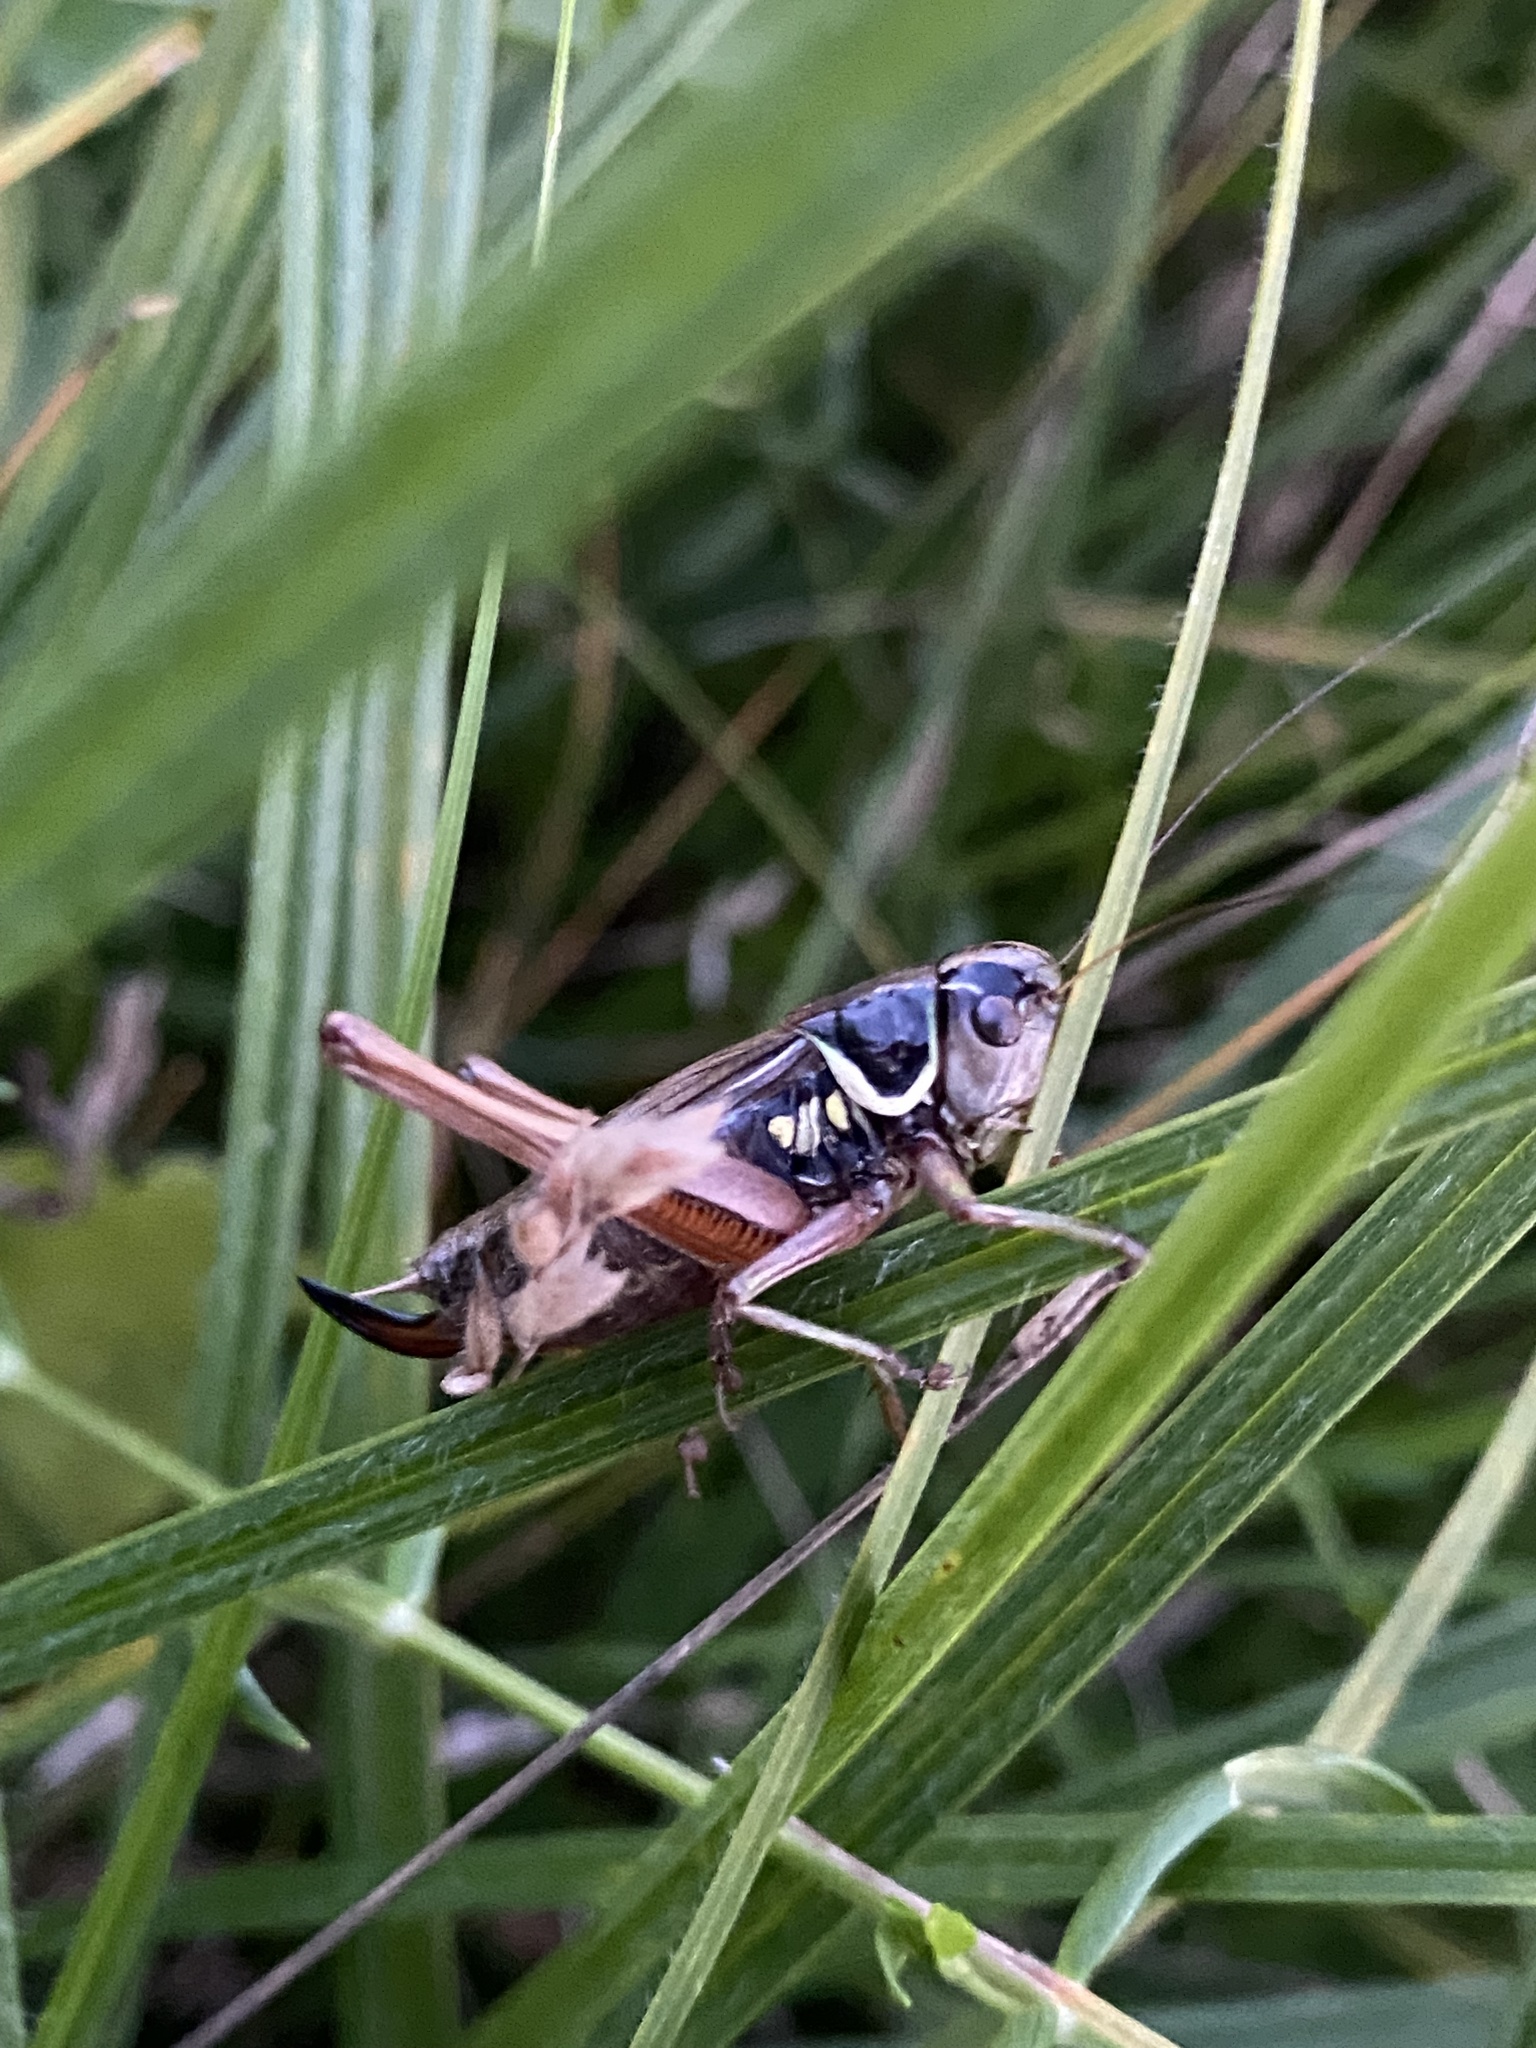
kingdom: Animalia
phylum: Arthropoda
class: Insecta
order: Orthoptera
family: Tettigoniidae
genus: Roeseliana
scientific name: Roeseliana roeselii
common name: Roesel's bush cricket
